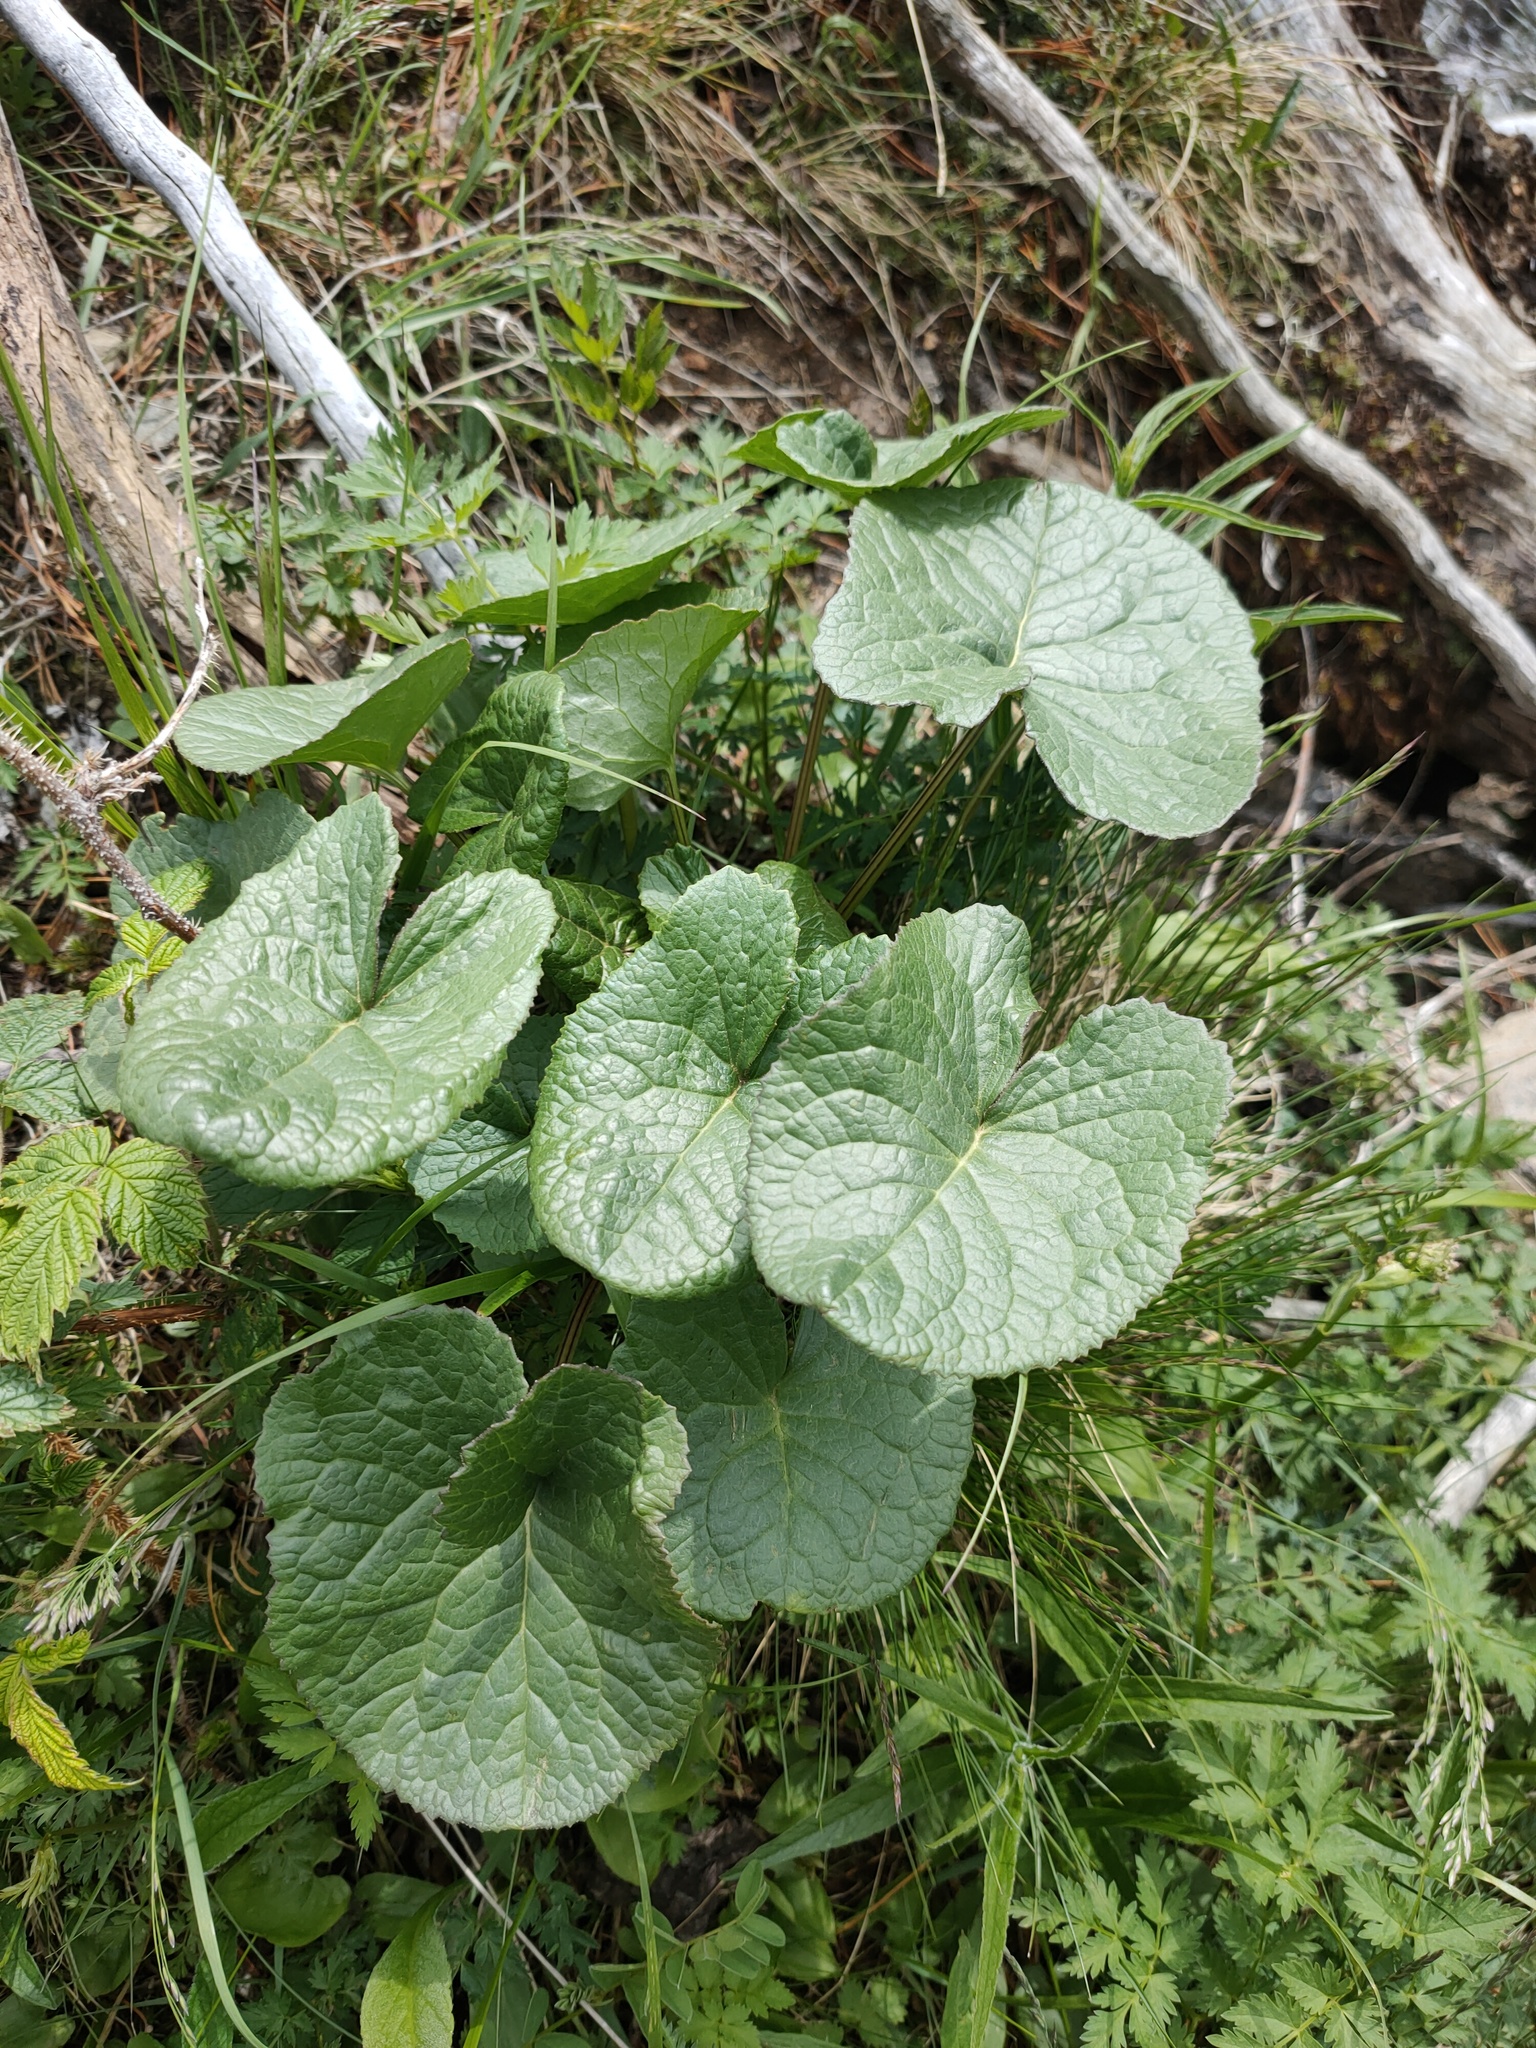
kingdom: Plantae
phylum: Tracheophyta
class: Magnoliopsida
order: Asterales
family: Asteraceae
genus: Ligularia
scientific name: Ligularia sibirica
